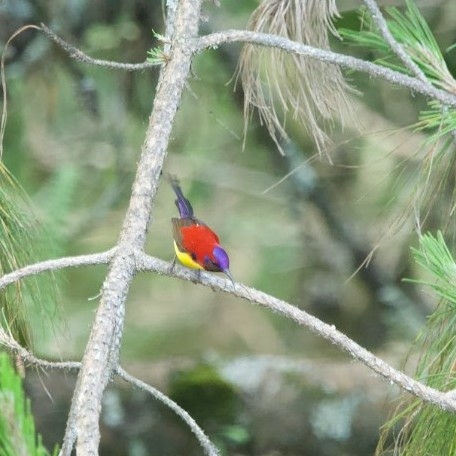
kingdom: Animalia
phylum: Chordata
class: Aves
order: Passeriformes
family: Nectariniidae
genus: Aethopyga
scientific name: Aethopyga gouldiae
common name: Mrs. gould's sunbird
